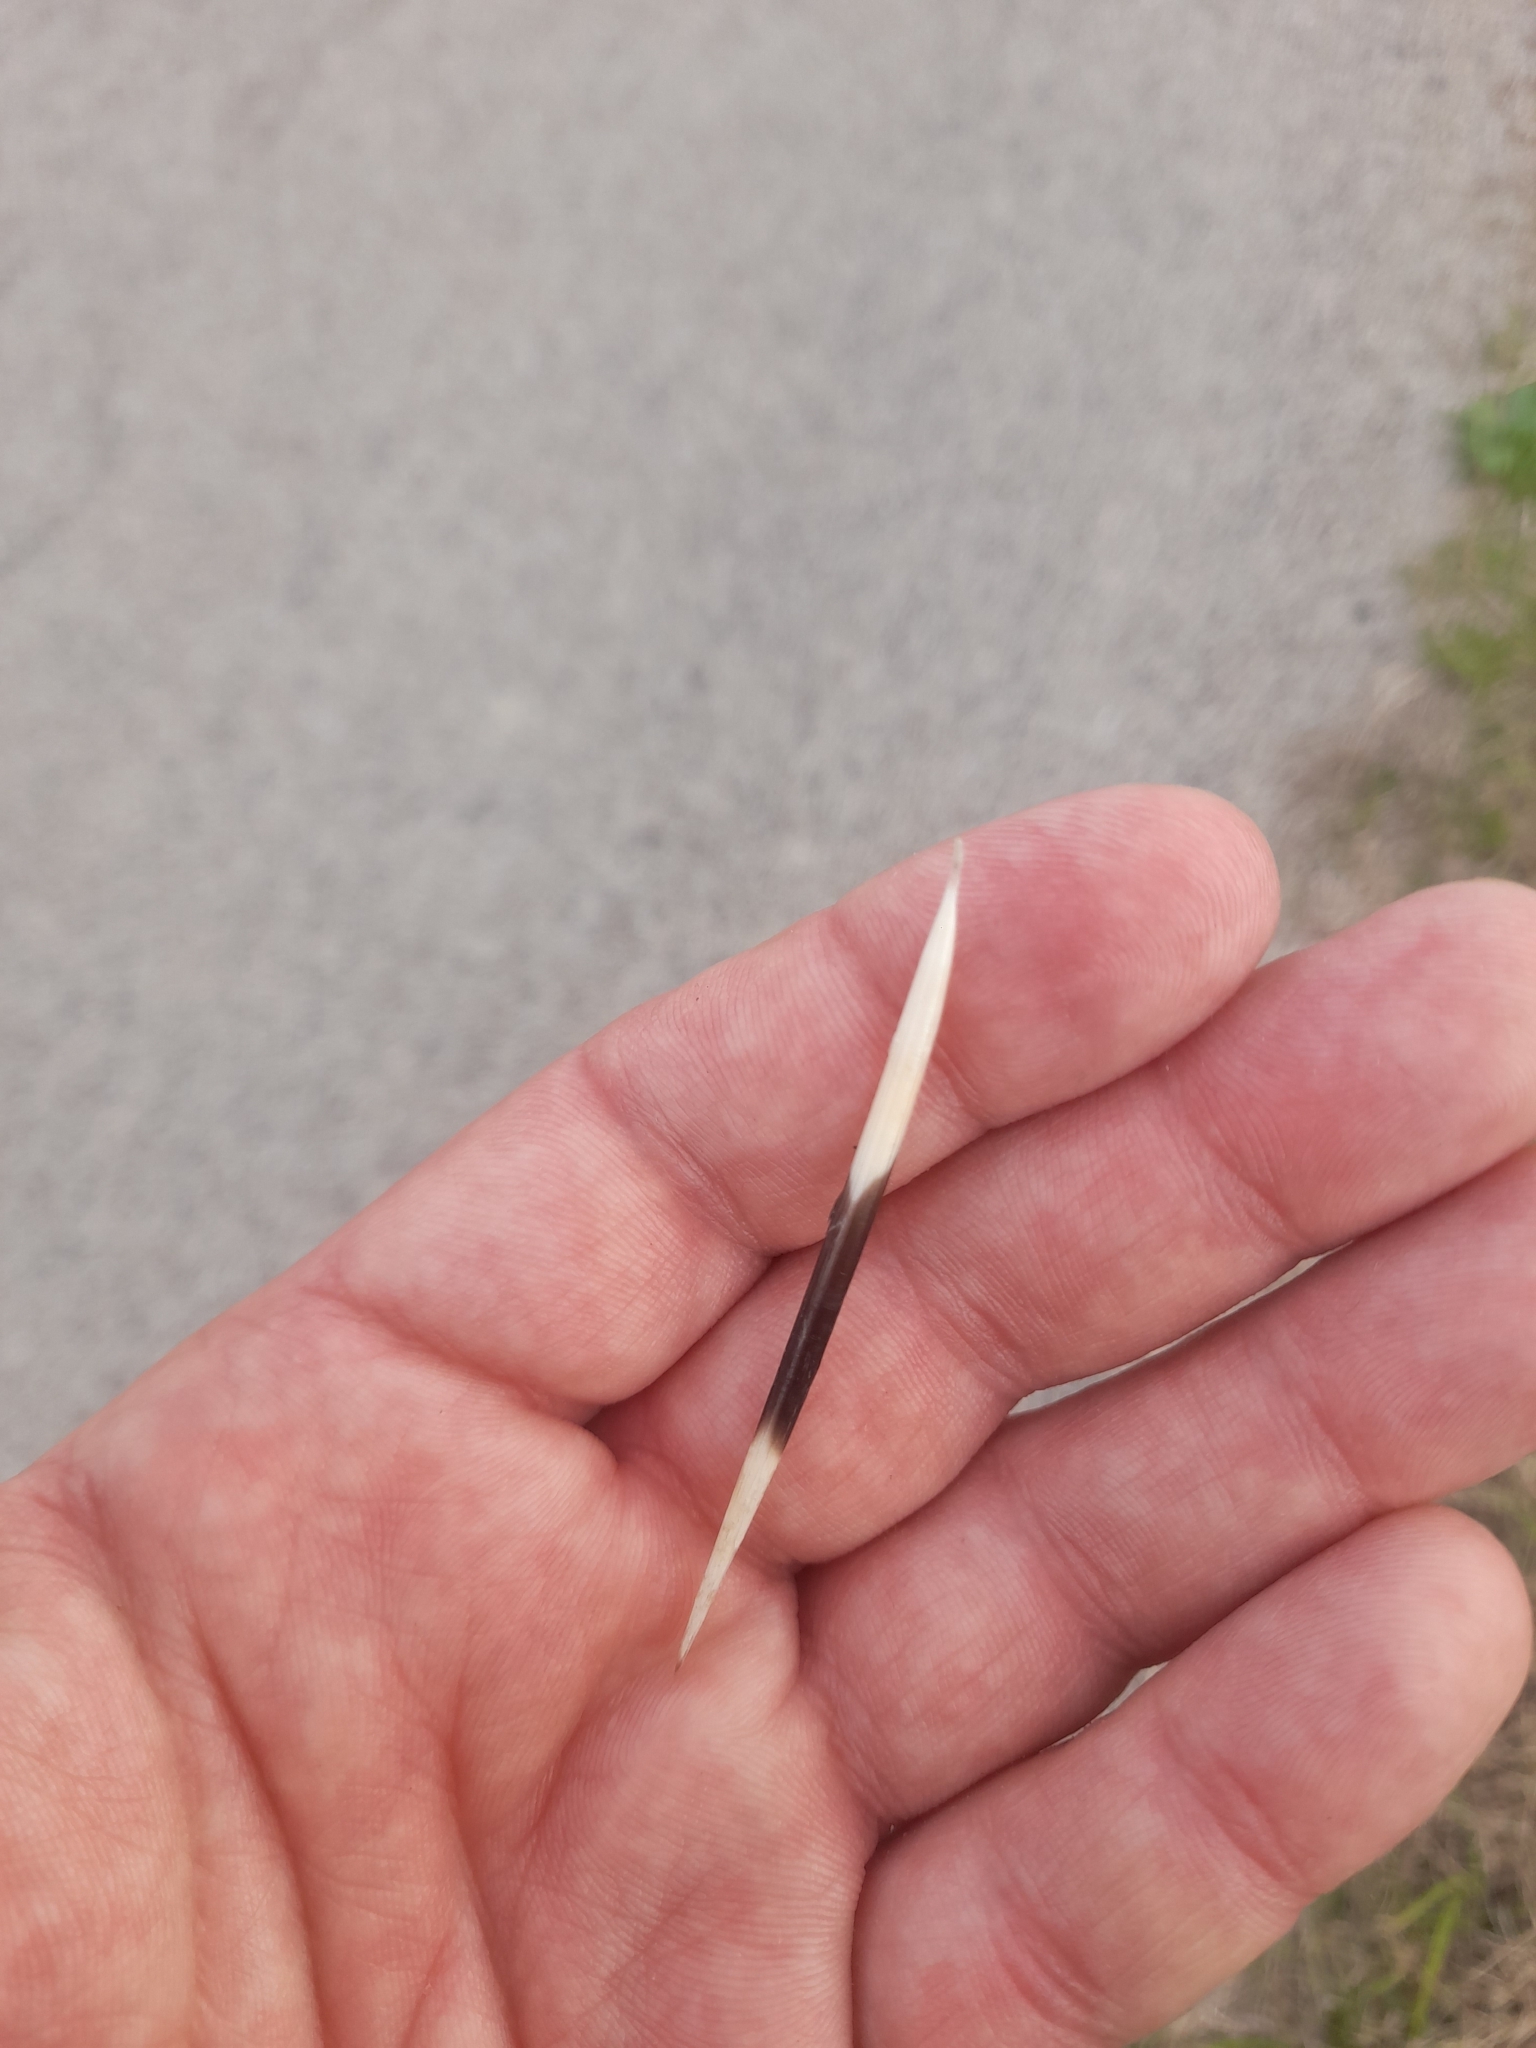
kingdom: Animalia
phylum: Chordata
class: Mammalia
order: Rodentia
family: Hystricidae
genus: Hystrix
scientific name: Hystrix cristata
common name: Crested porcupine
